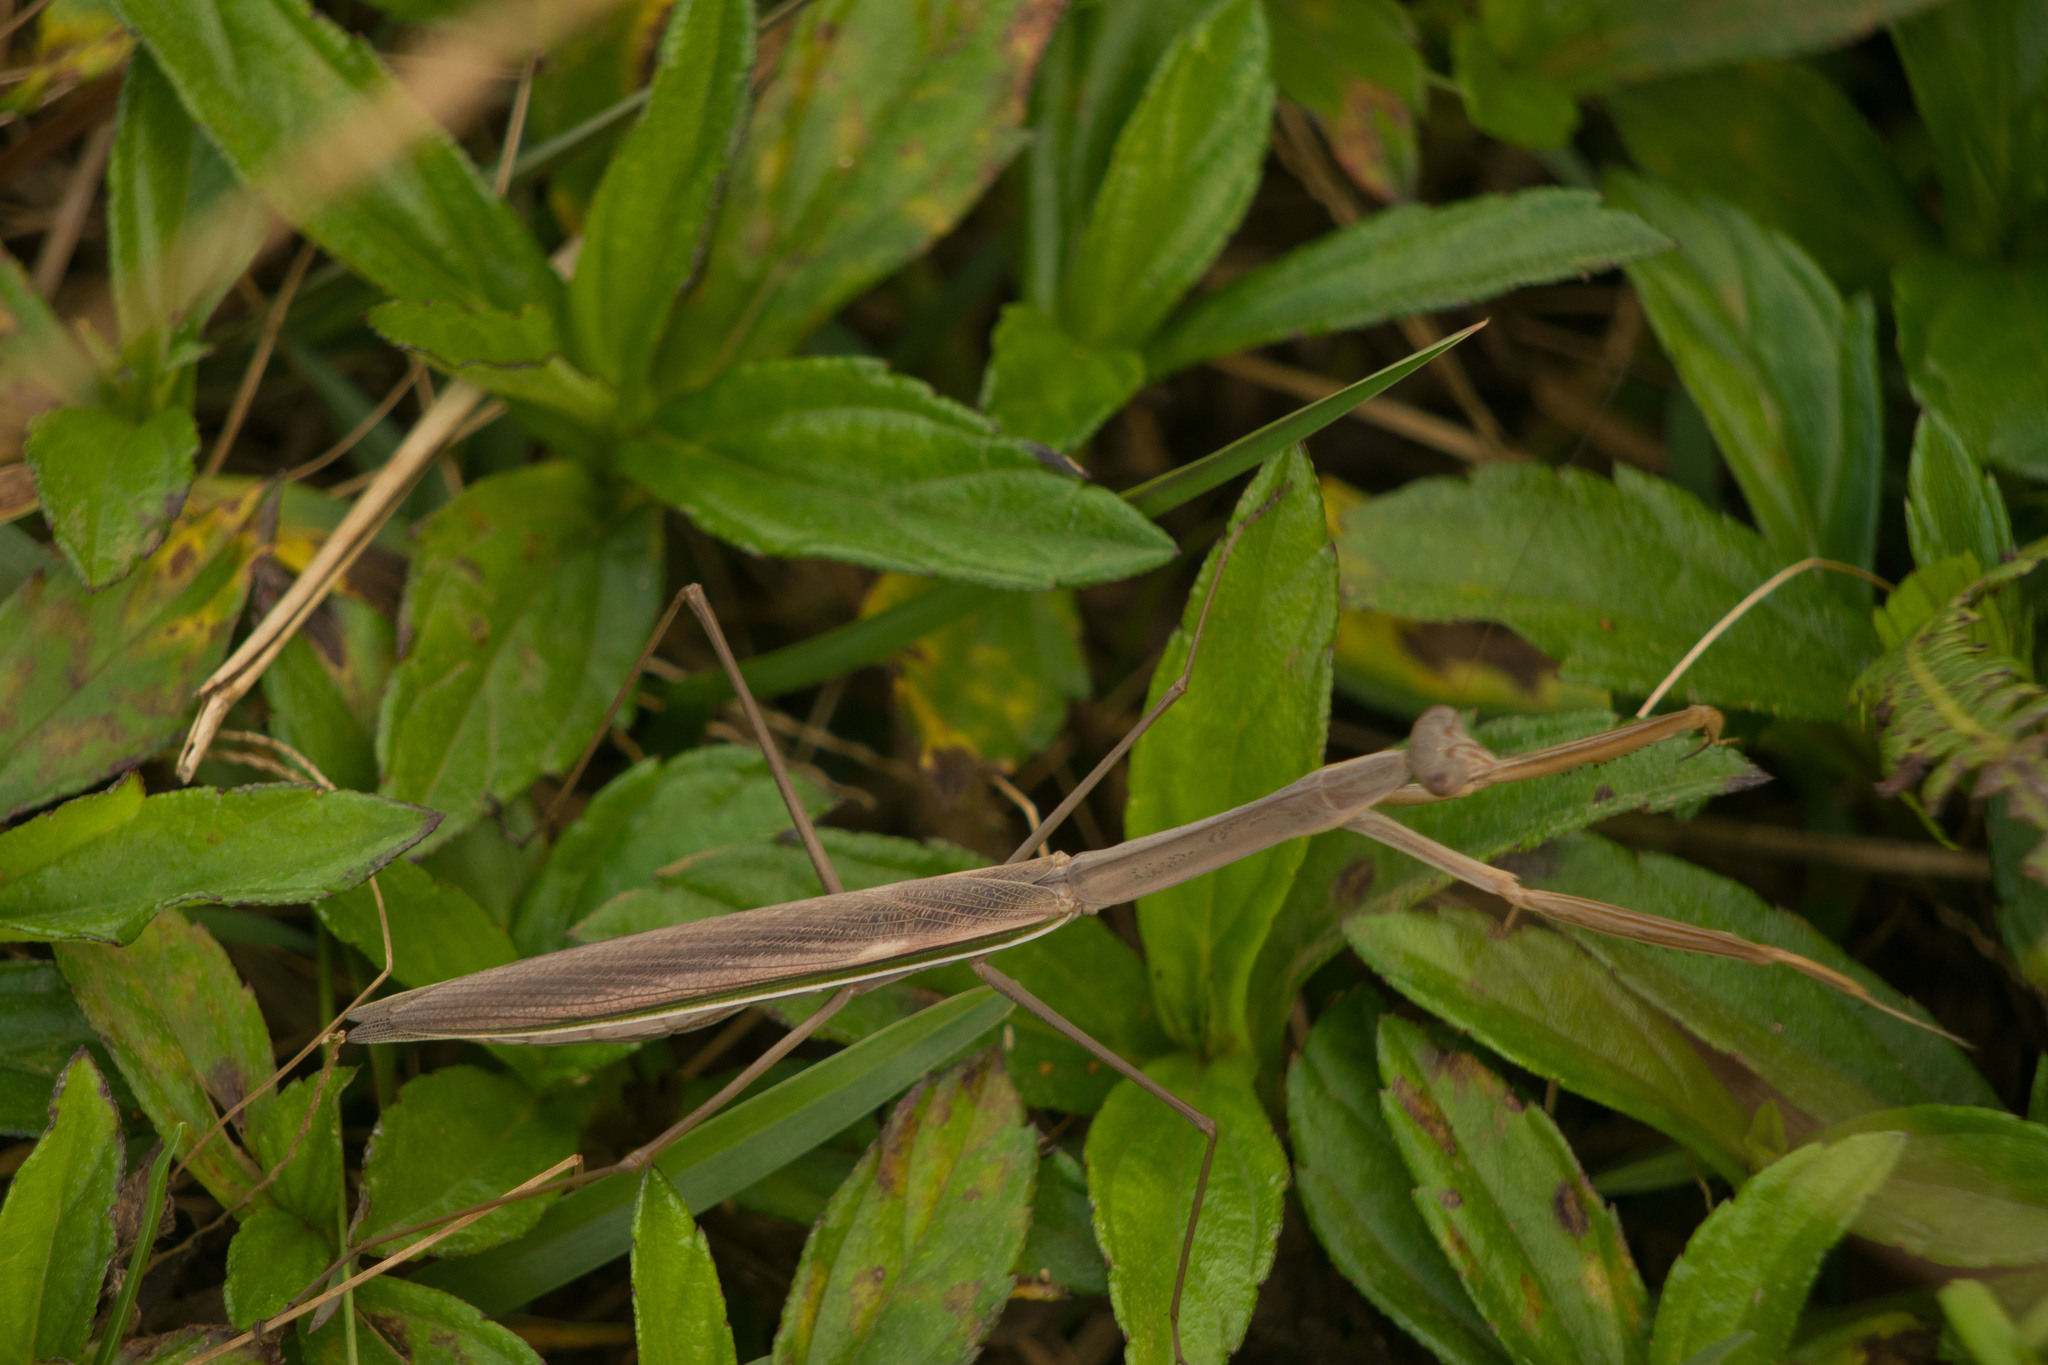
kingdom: Animalia
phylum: Arthropoda
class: Insecta
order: Mantodea
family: Mantidae
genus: Tenodera
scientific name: Tenodera australasiae
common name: Purple-winged mantis
